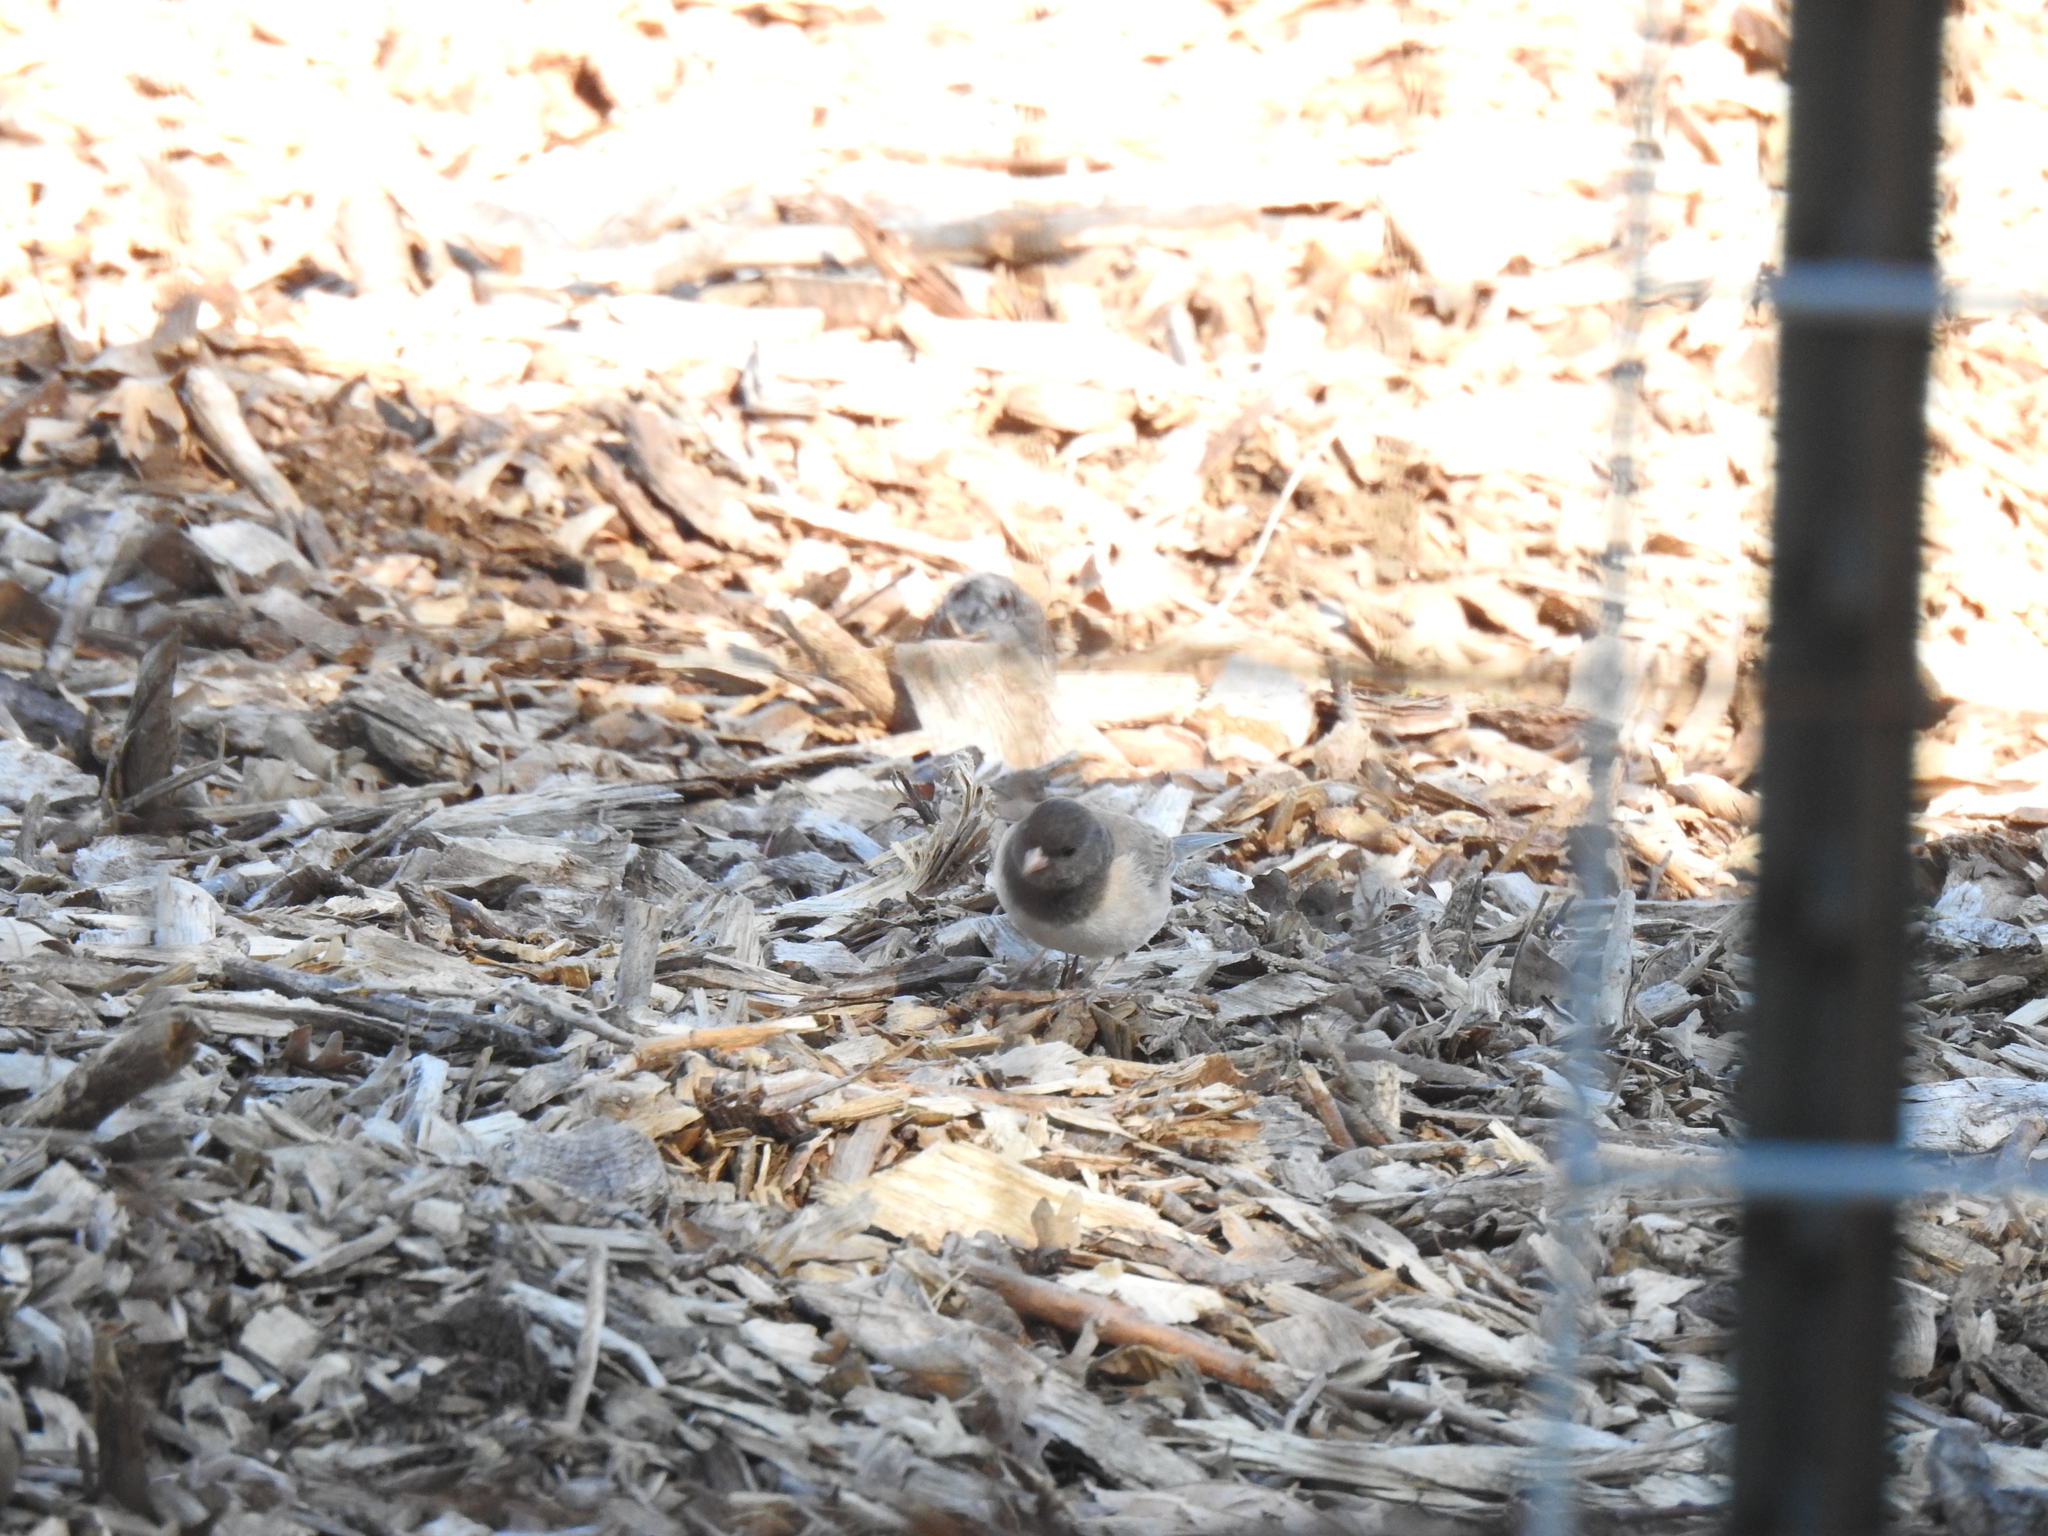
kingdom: Animalia
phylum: Chordata
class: Aves
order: Passeriformes
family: Passerellidae
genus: Junco
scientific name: Junco hyemalis
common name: Dark-eyed junco
